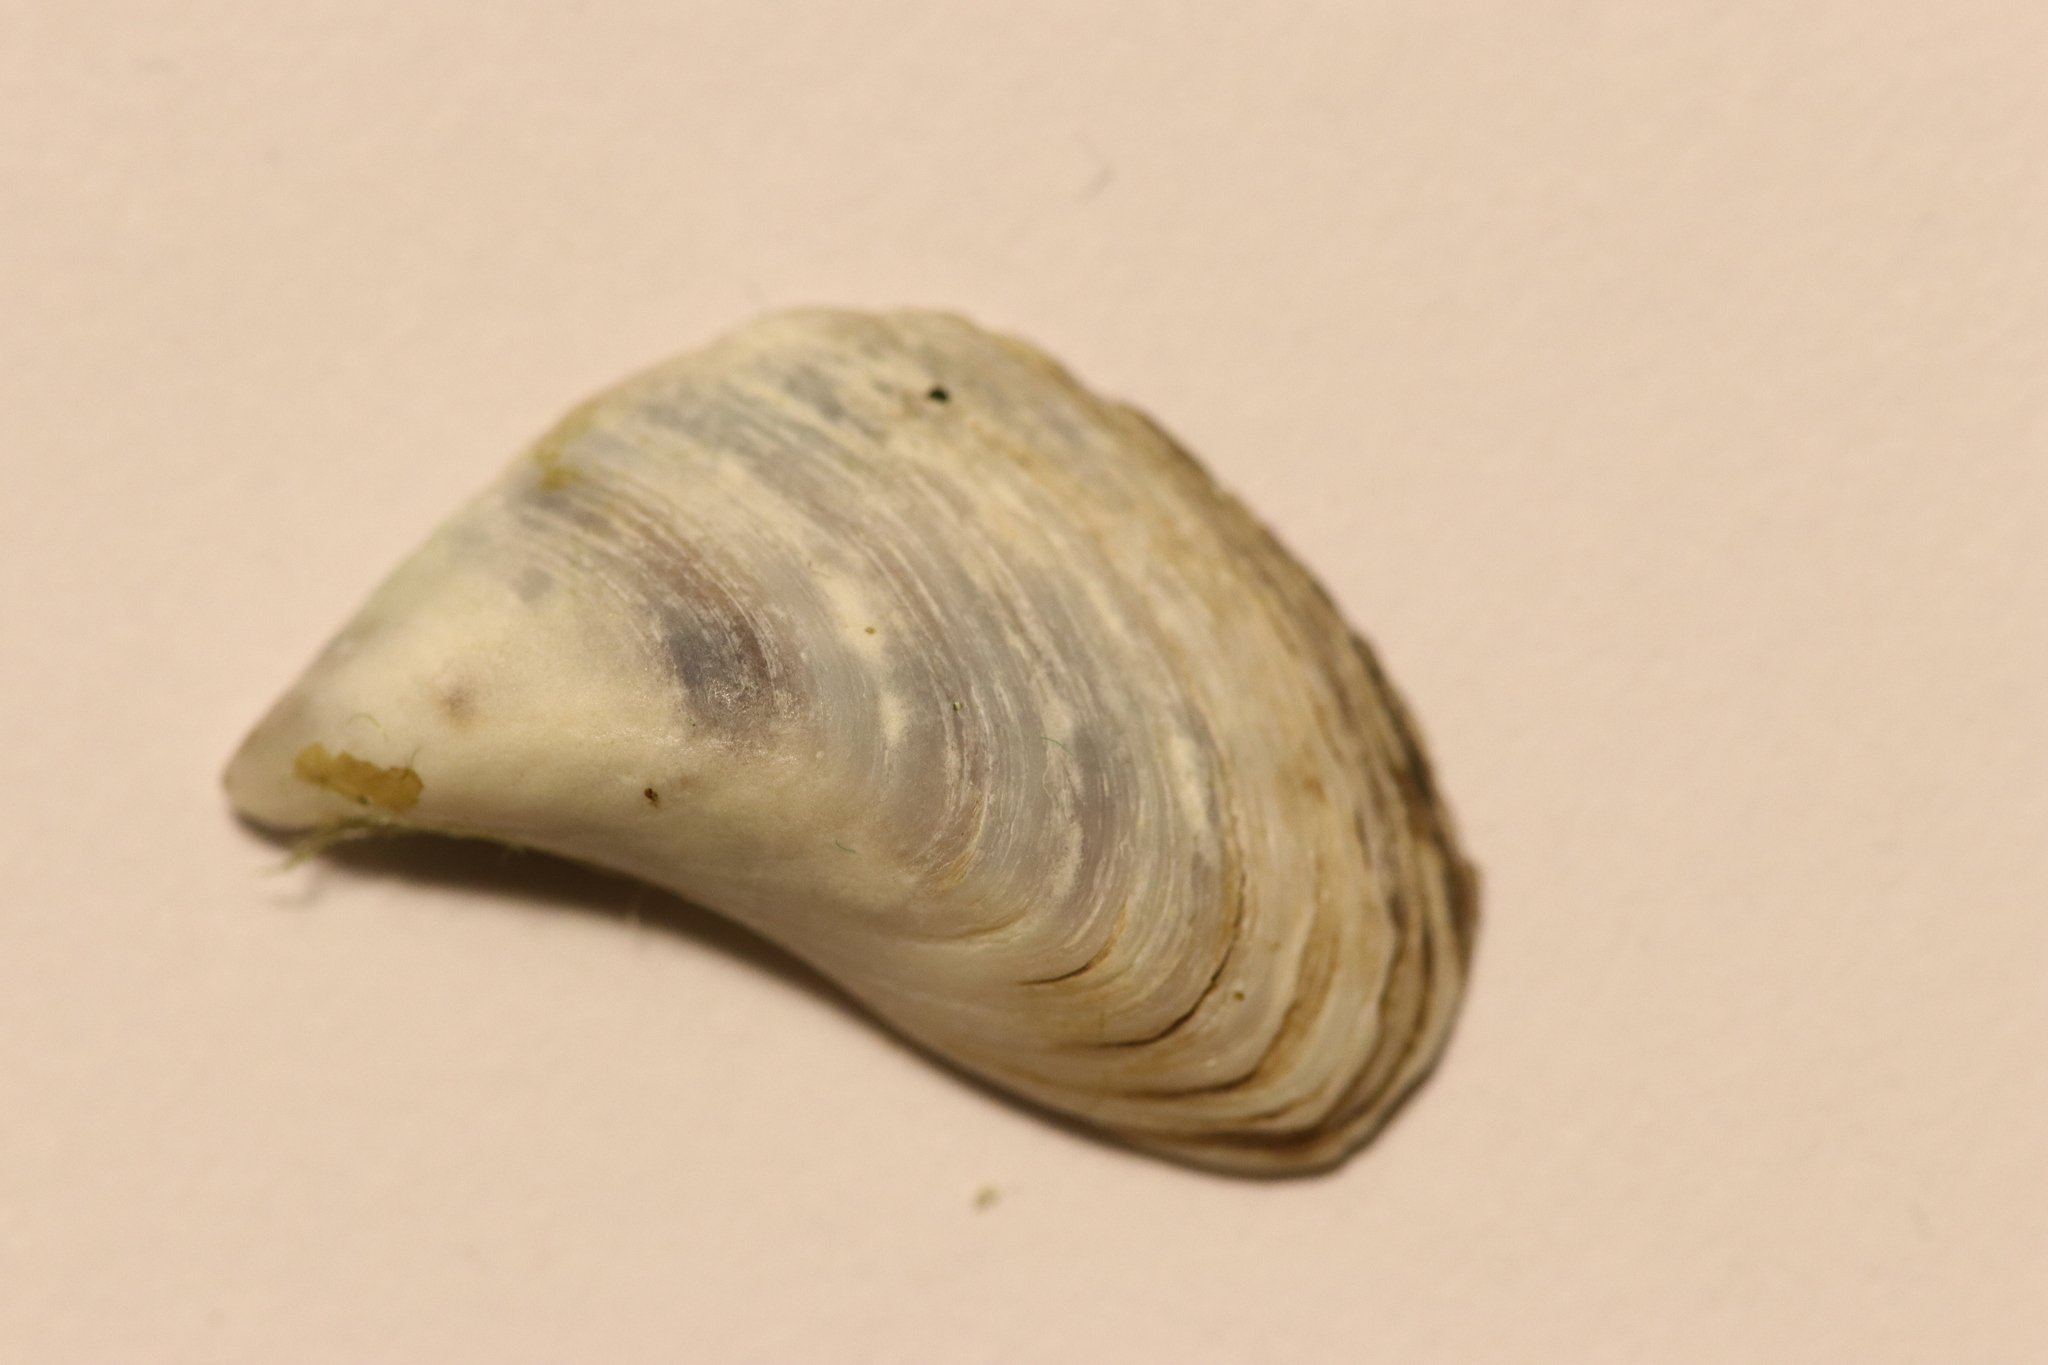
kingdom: Animalia
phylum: Mollusca
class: Bivalvia
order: Myida
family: Dreissenidae
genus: Dreissena
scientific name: Dreissena bugensis
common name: Quagga mussel
